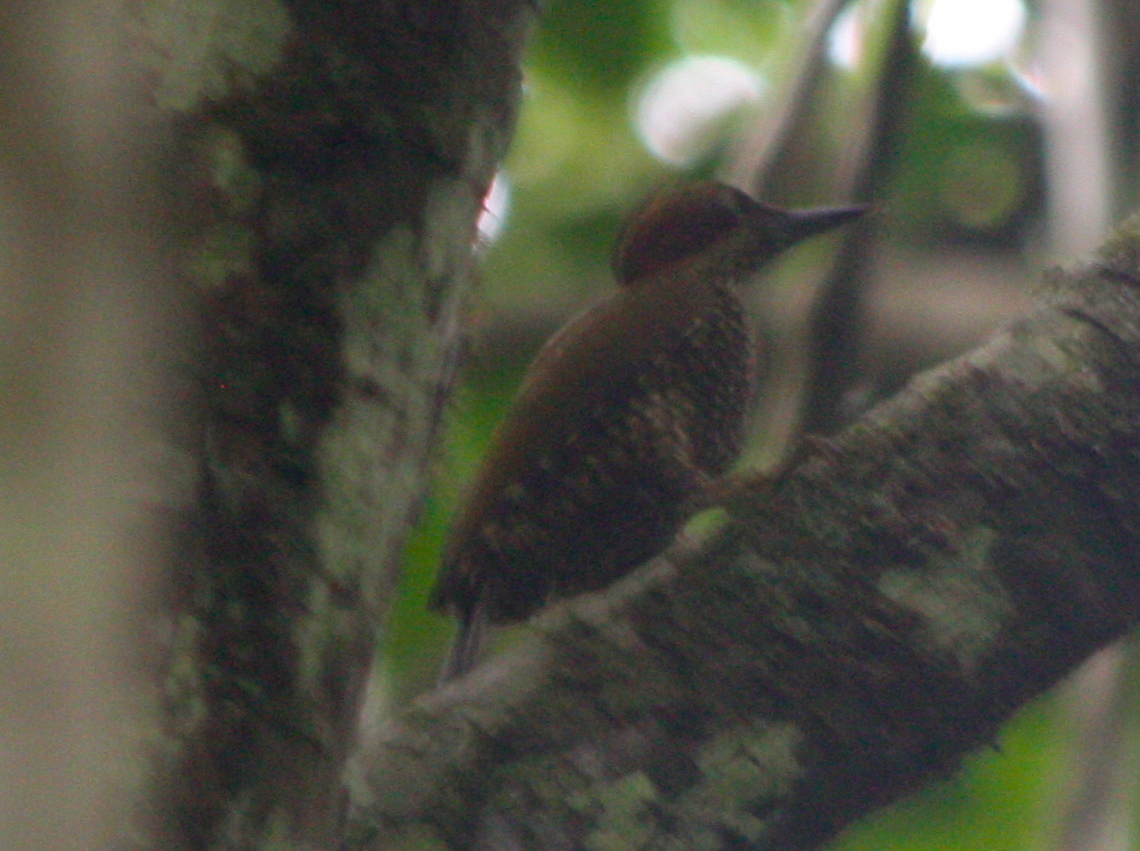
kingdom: Animalia
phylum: Chordata
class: Aves
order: Piciformes
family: Picidae
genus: Pardipicus
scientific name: Pardipicus caroli
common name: Brown-eared woodpecker
